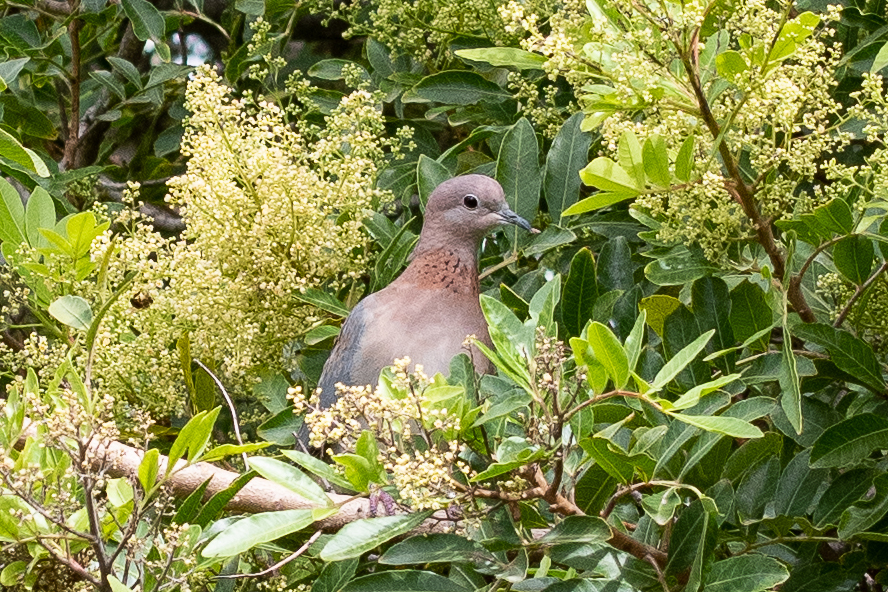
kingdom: Animalia
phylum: Chordata
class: Aves
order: Columbiformes
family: Columbidae
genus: Spilopelia
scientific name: Spilopelia senegalensis
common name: Laughing dove
